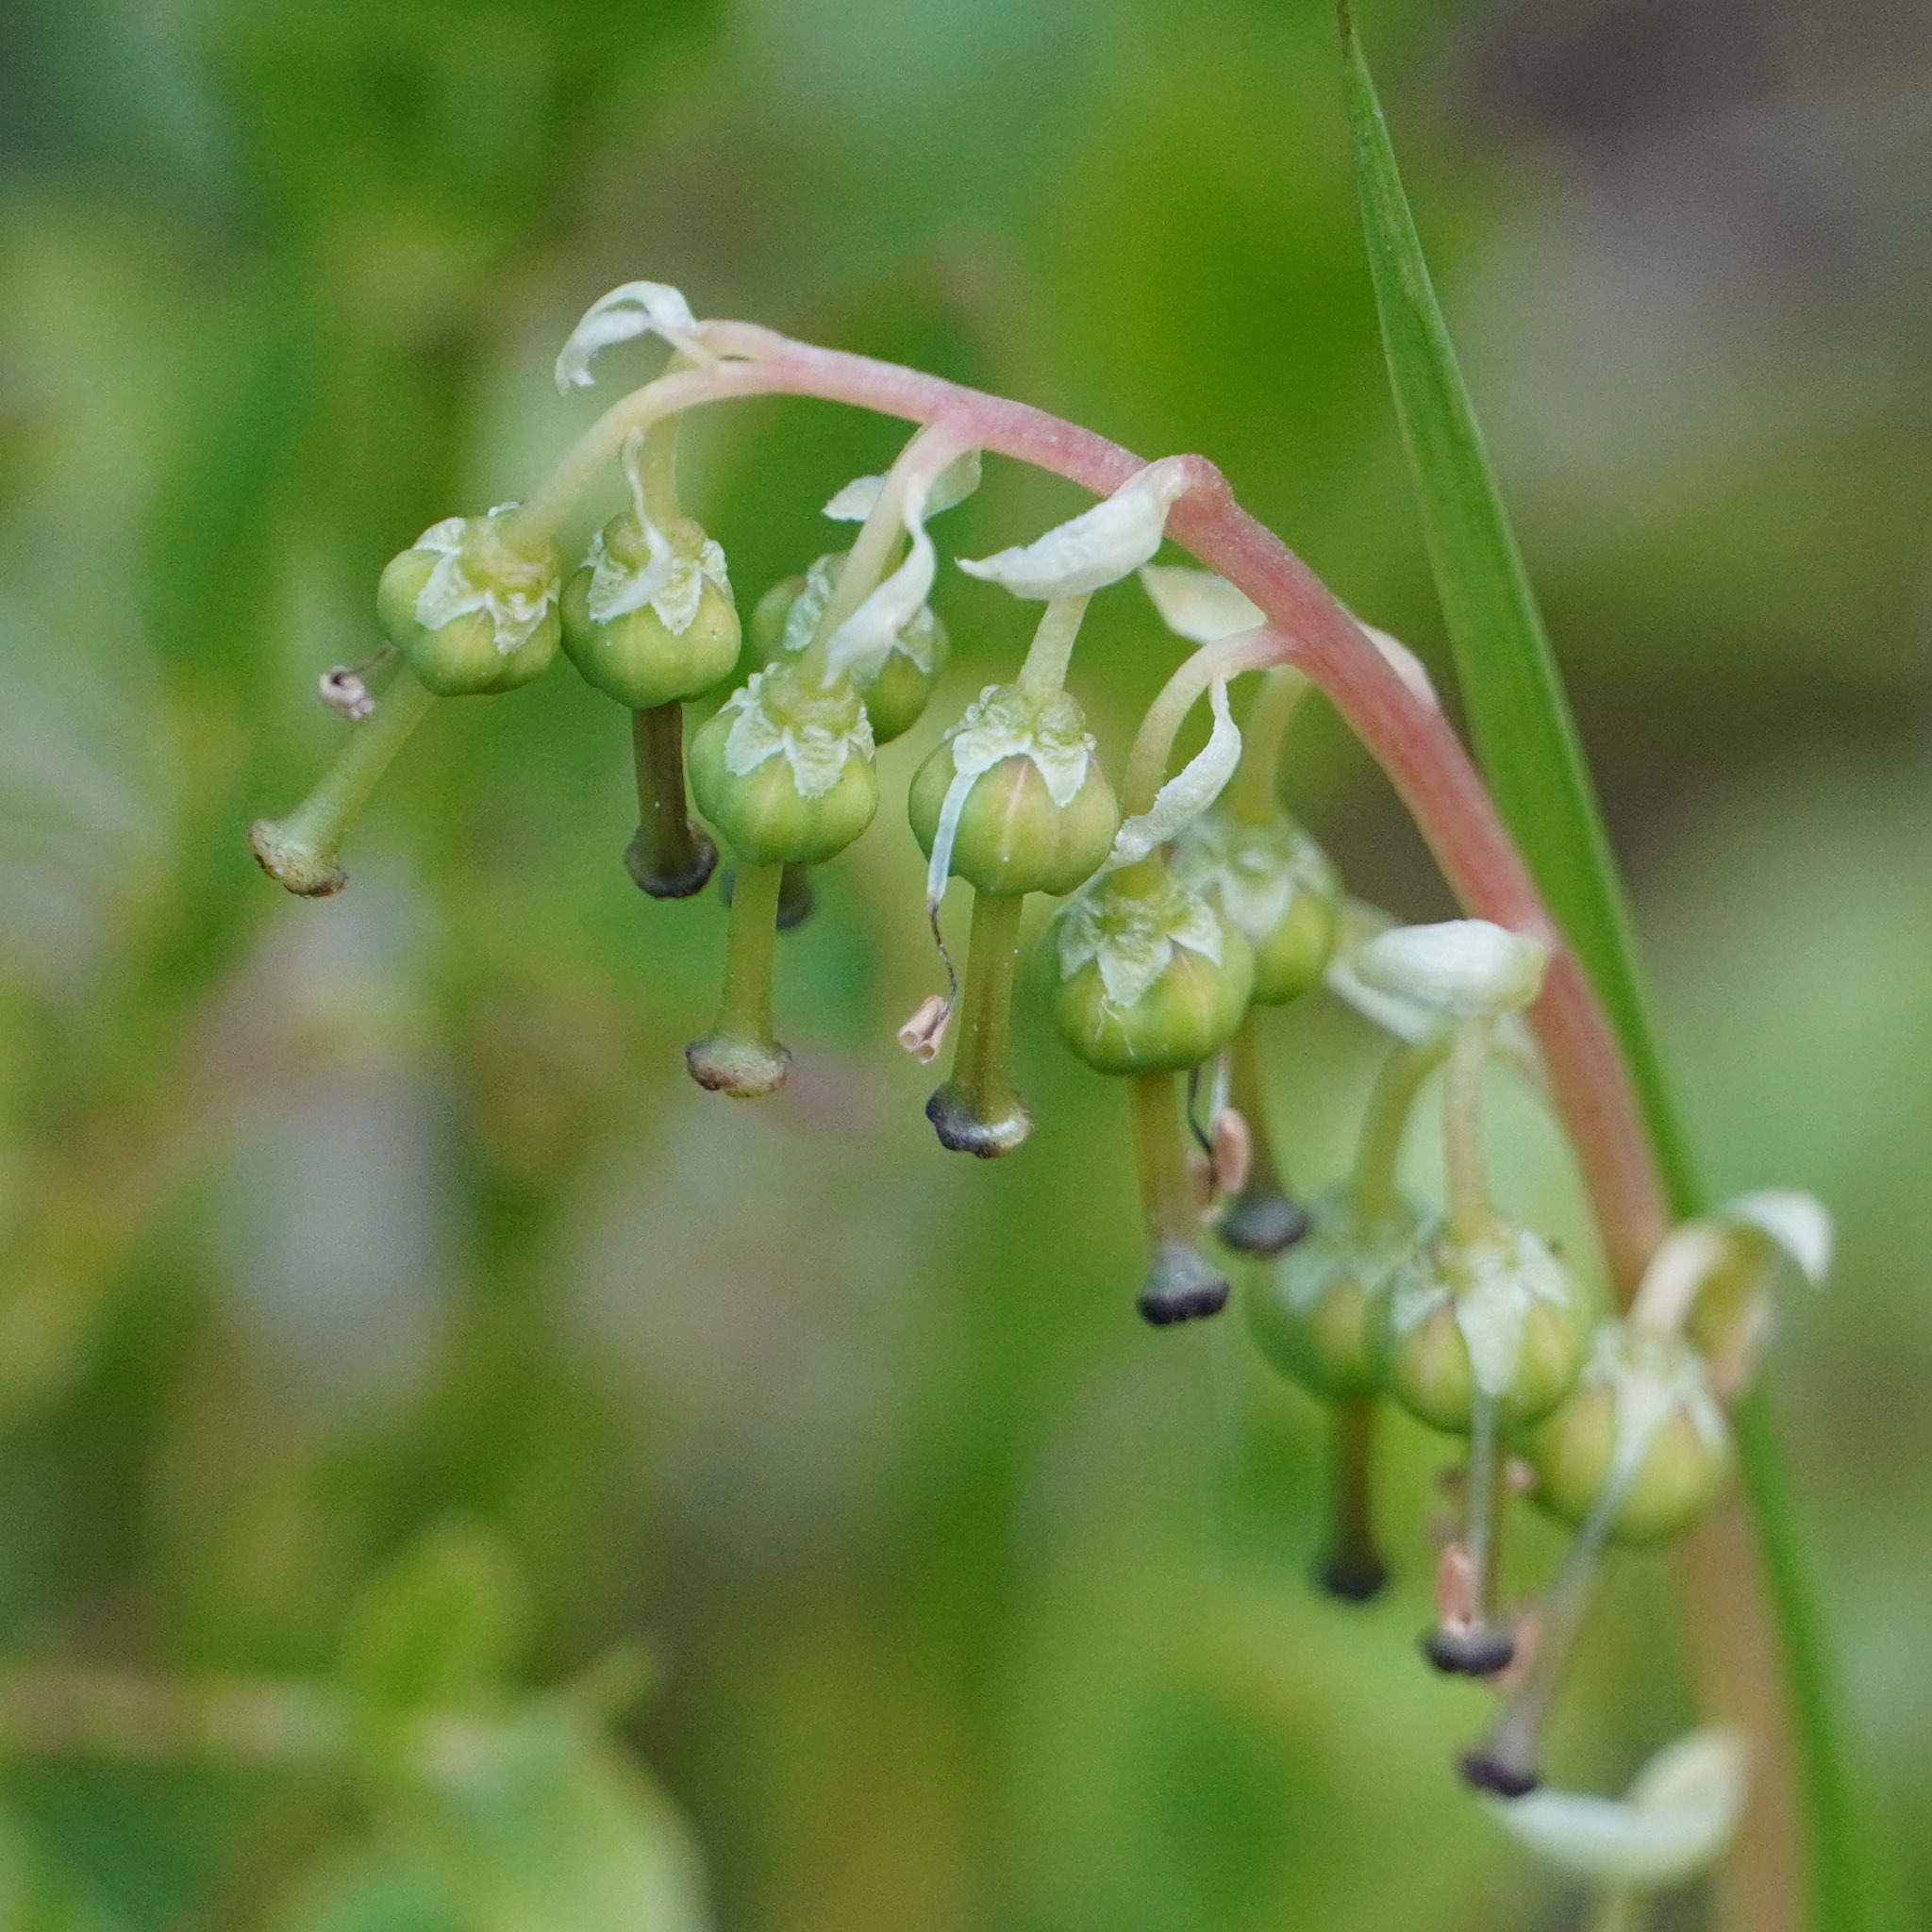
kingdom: Plantae
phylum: Tracheophyta
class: Magnoliopsida
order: Ericales
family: Ericaceae
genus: Orthilia
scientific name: Orthilia secunda
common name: One-sided orthilia
